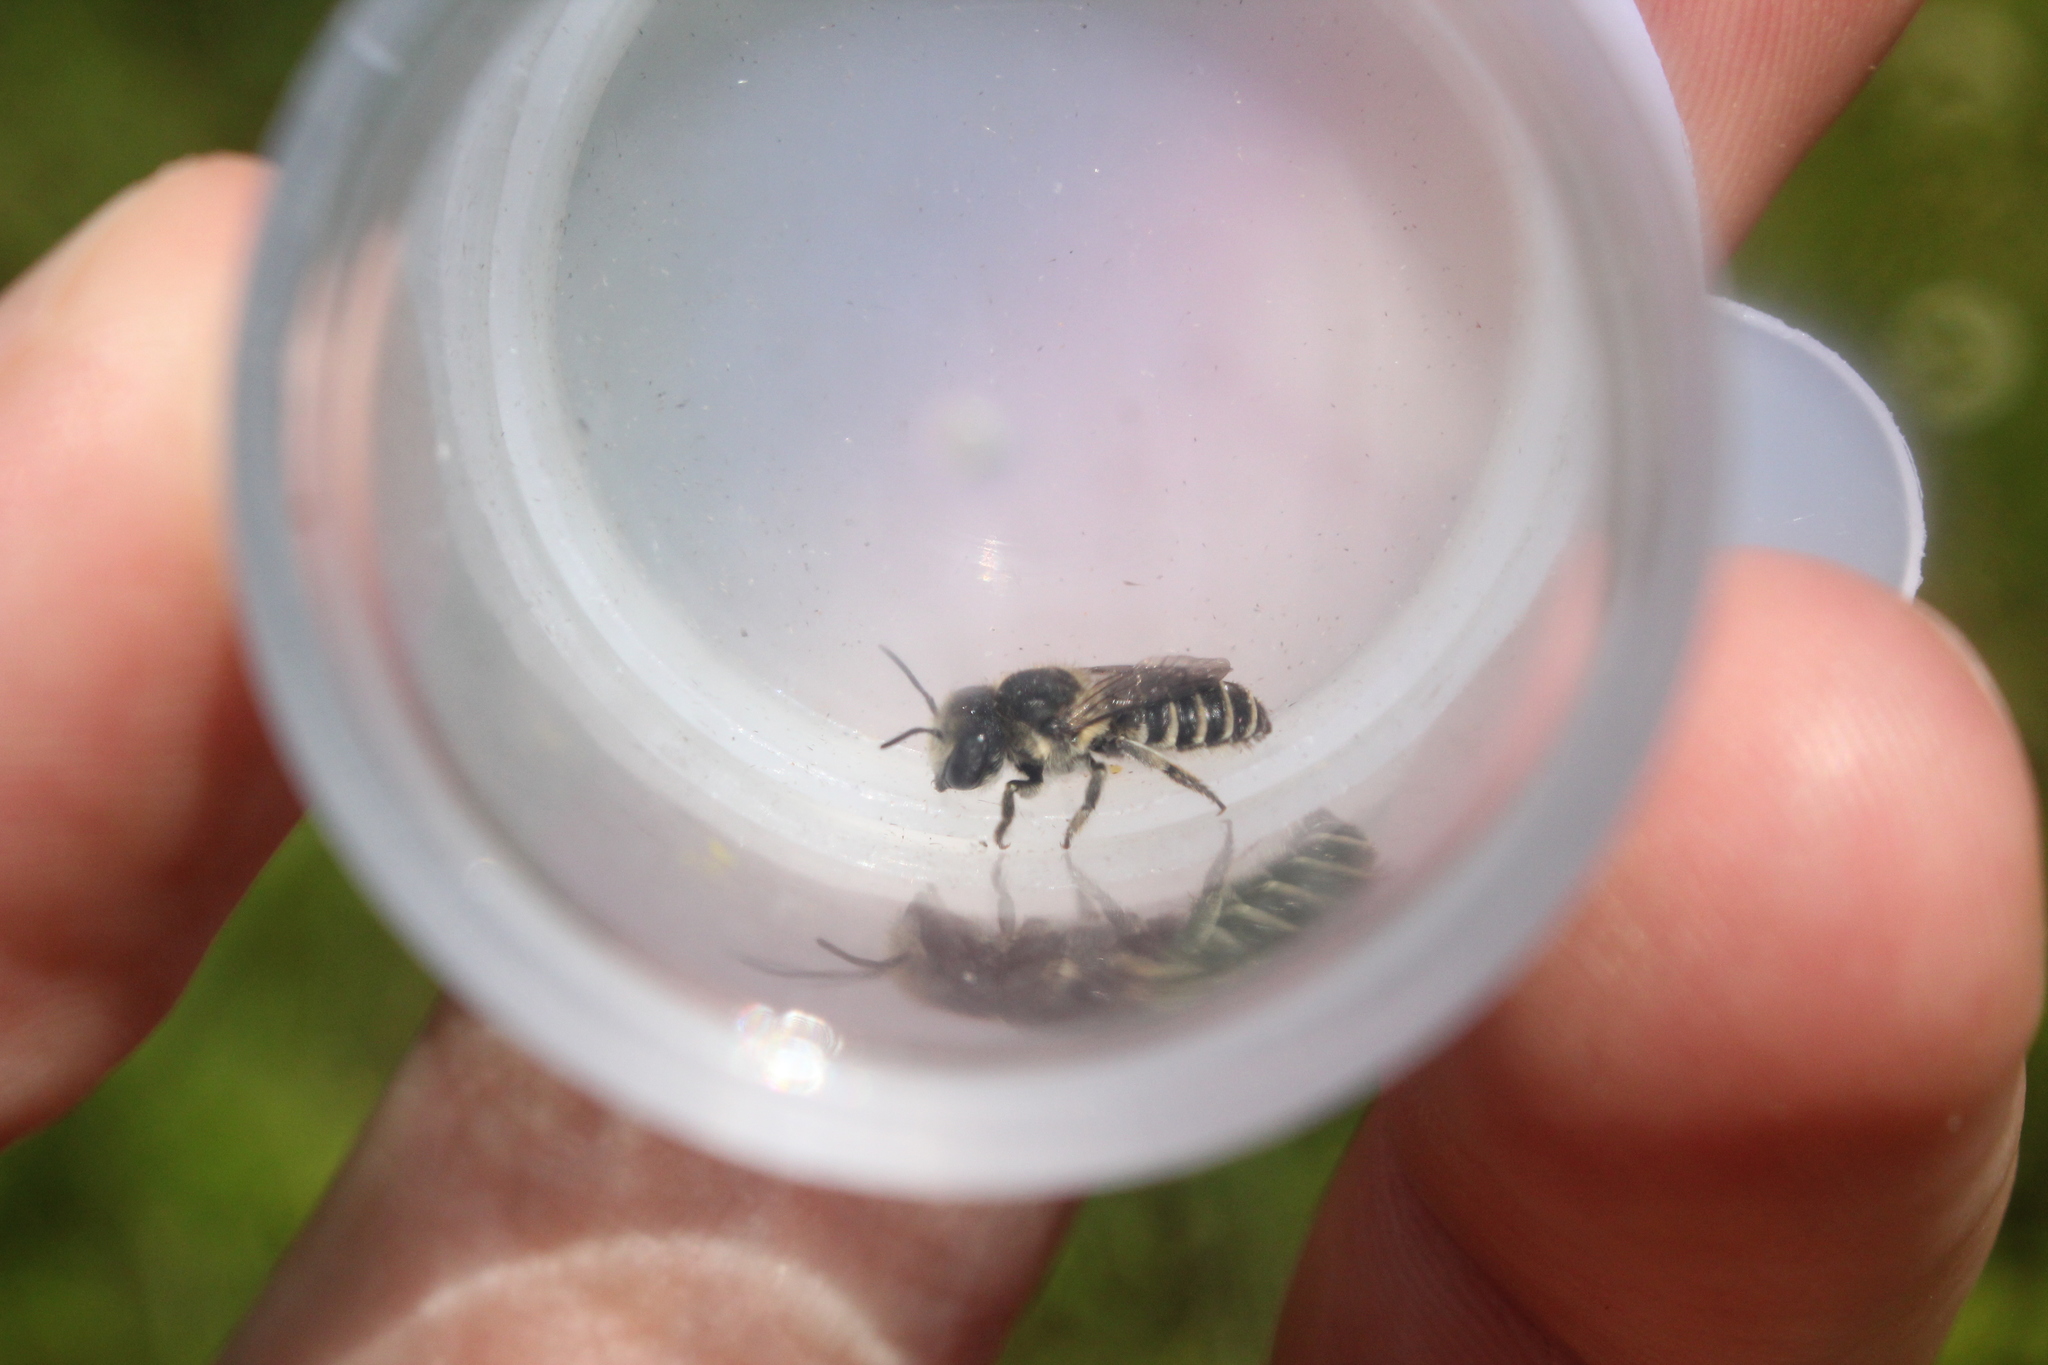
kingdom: Animalia
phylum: Arthropoda
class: Insecta
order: Hymenoptera
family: Megachilidae
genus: Megachile
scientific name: Megachile rotundata
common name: Alfalfa leafcutting bee
